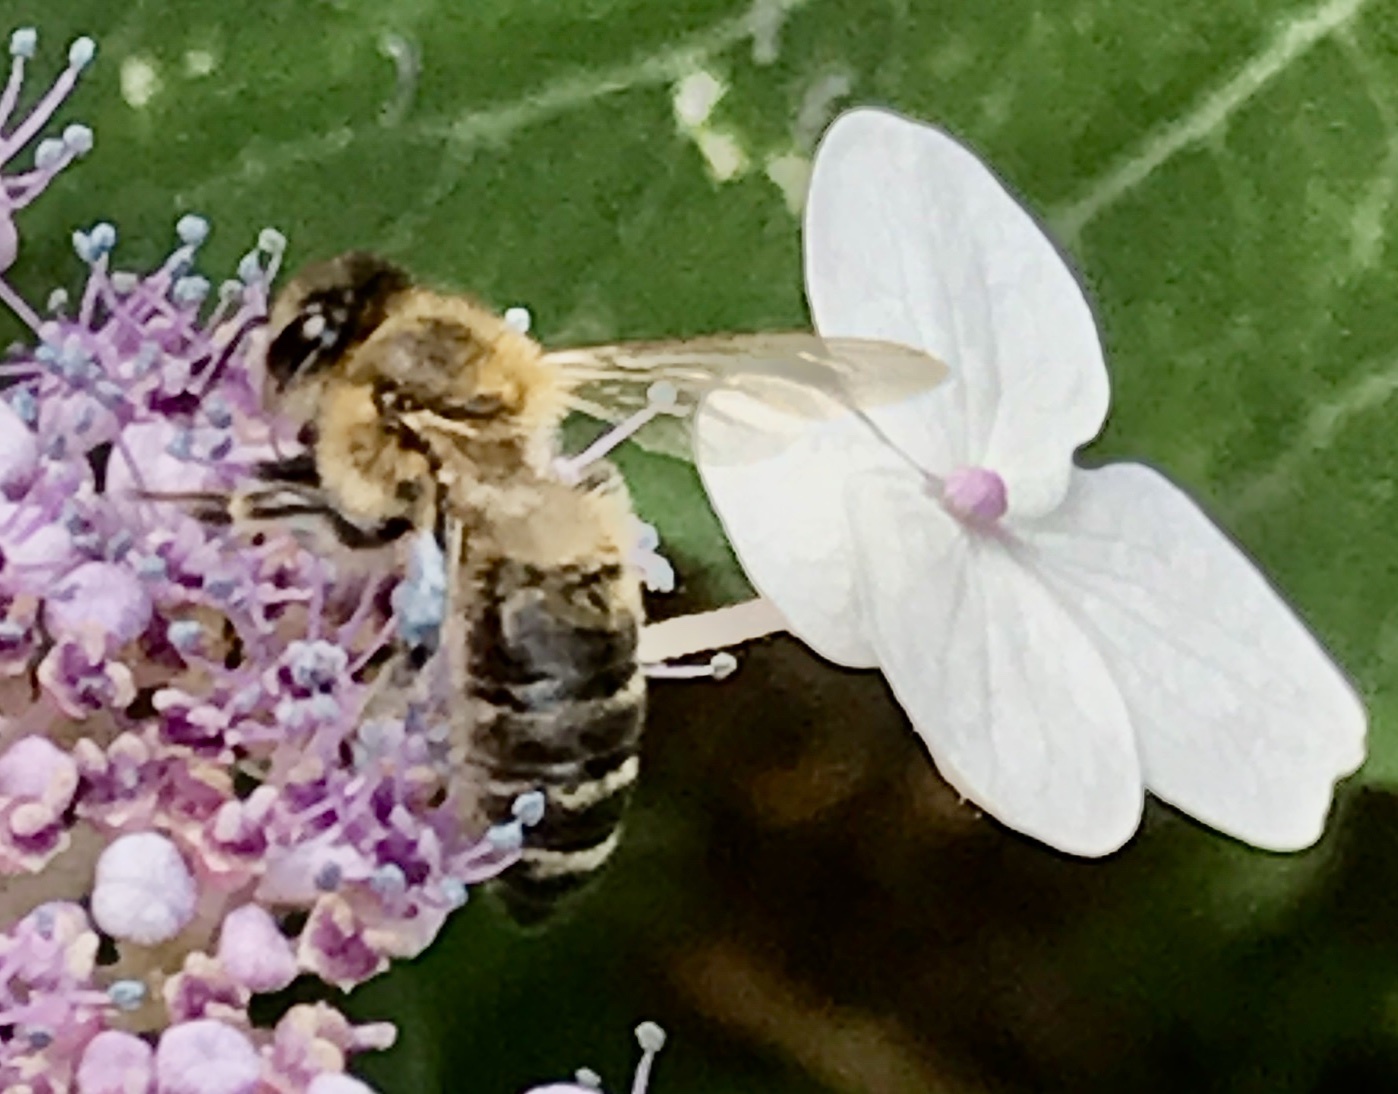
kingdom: Animalia
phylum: Arthropoda
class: Insecta
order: Hymenoptera
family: Apidae
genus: Apis
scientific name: Apis mellifera
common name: Honey bee
